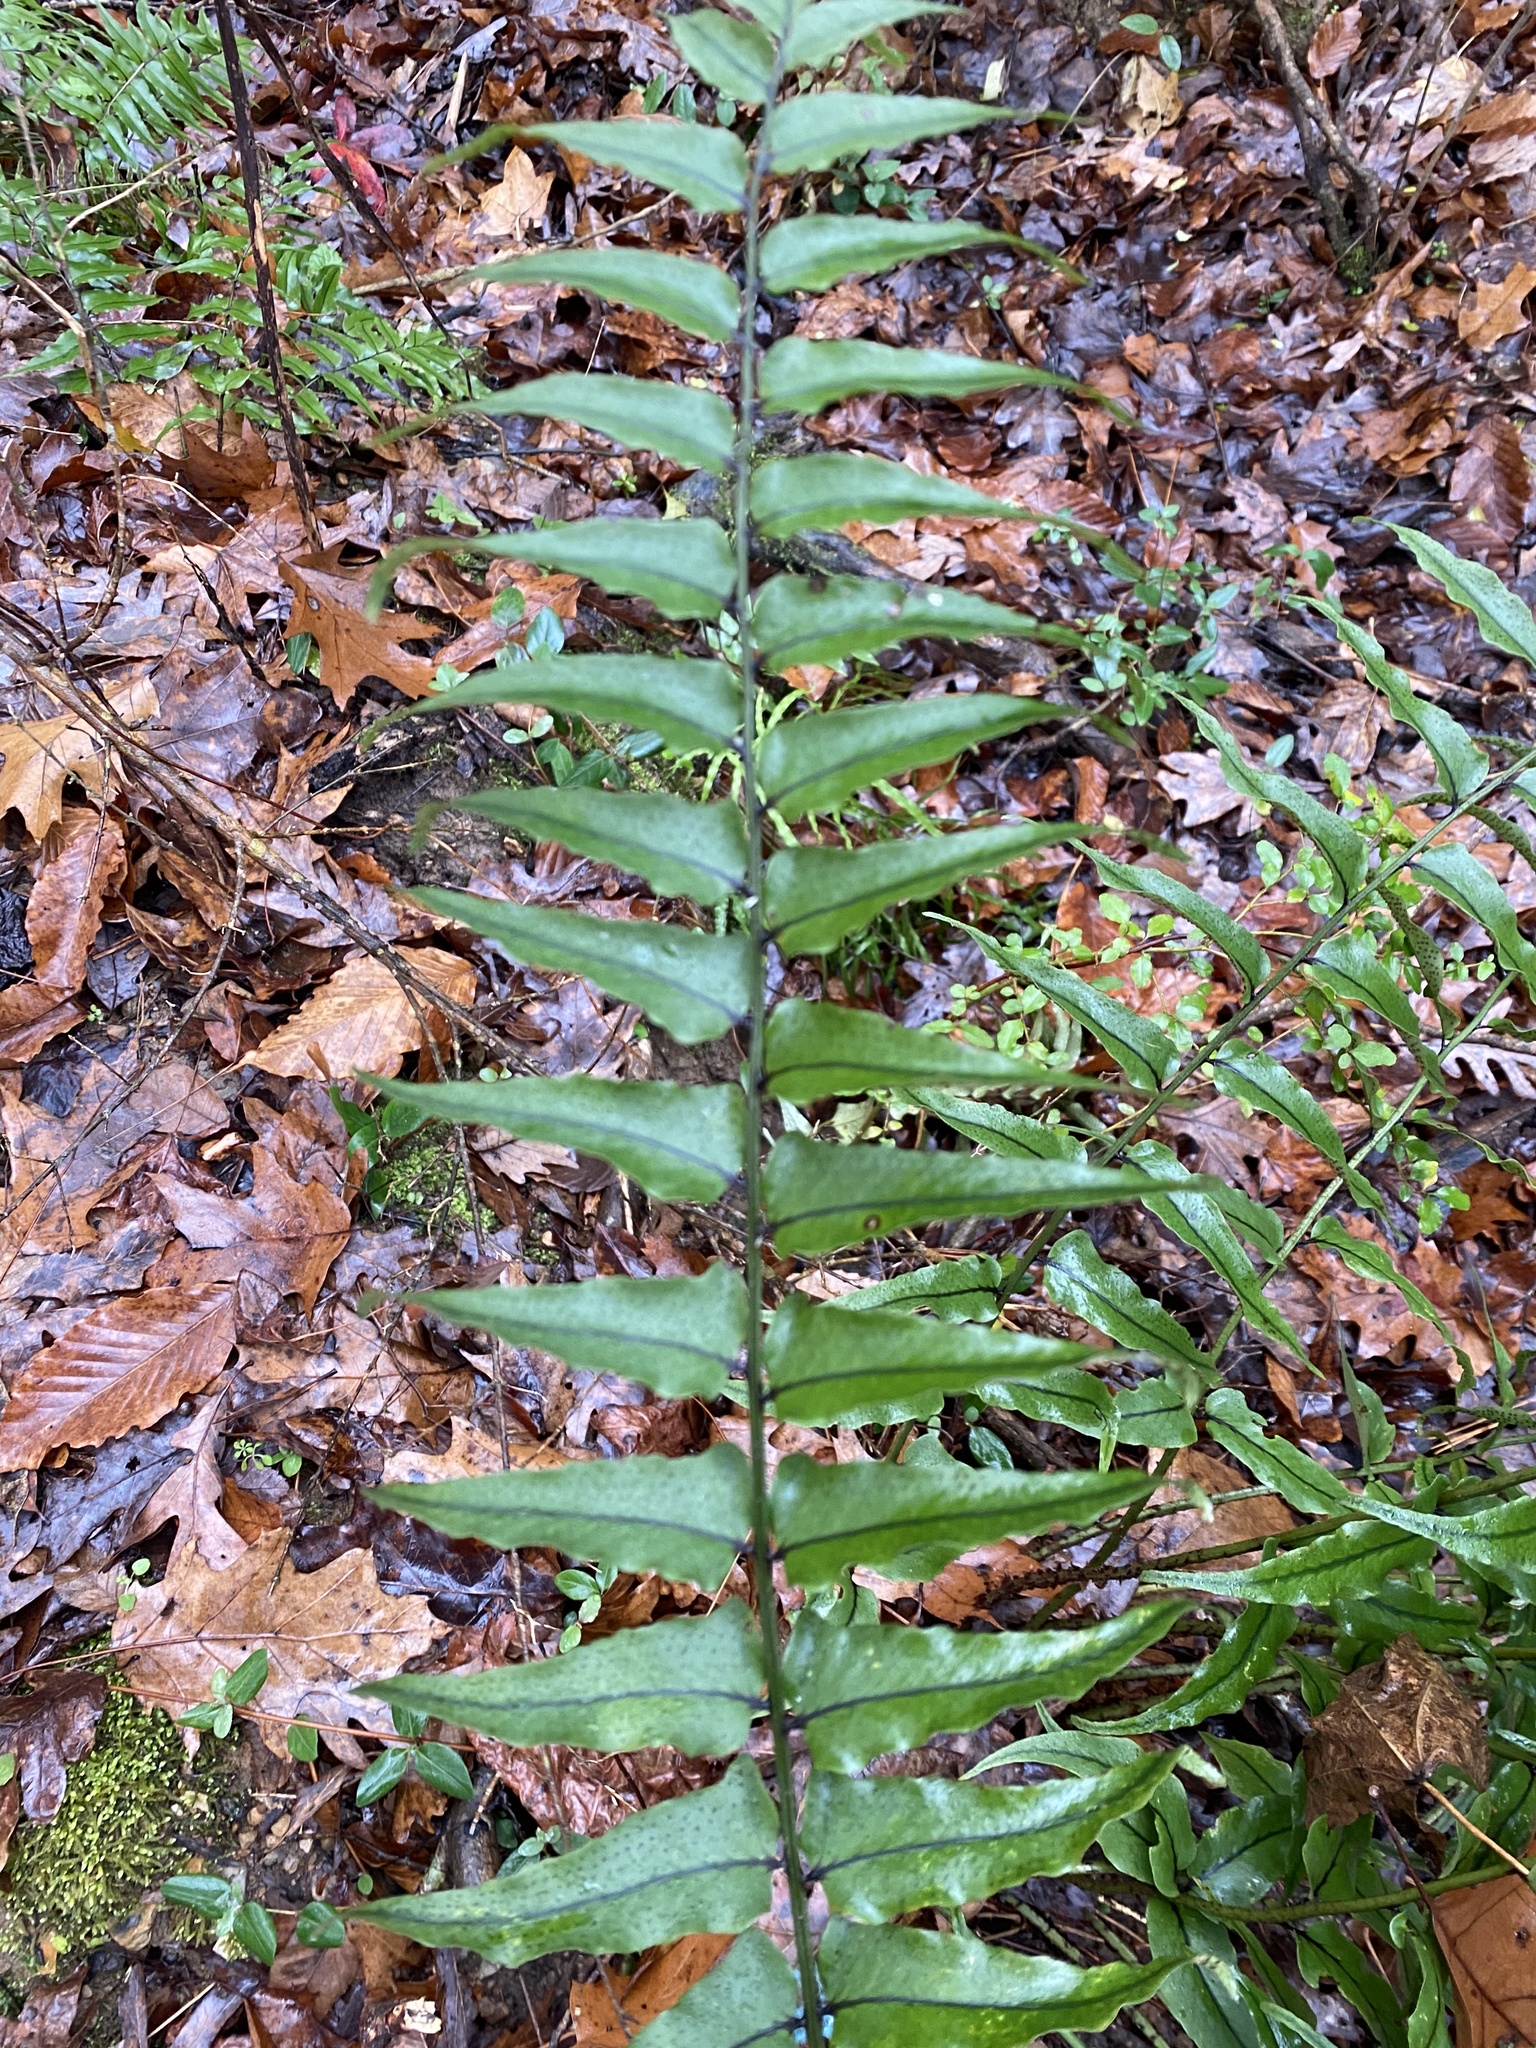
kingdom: Plantae
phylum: Tracheophyta
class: Polypodiopsida
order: Polypodiales
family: Dryopteridaceae
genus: Cyrtomium
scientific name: Cyrtomium fortunei
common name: Asian netvein hollyfern
